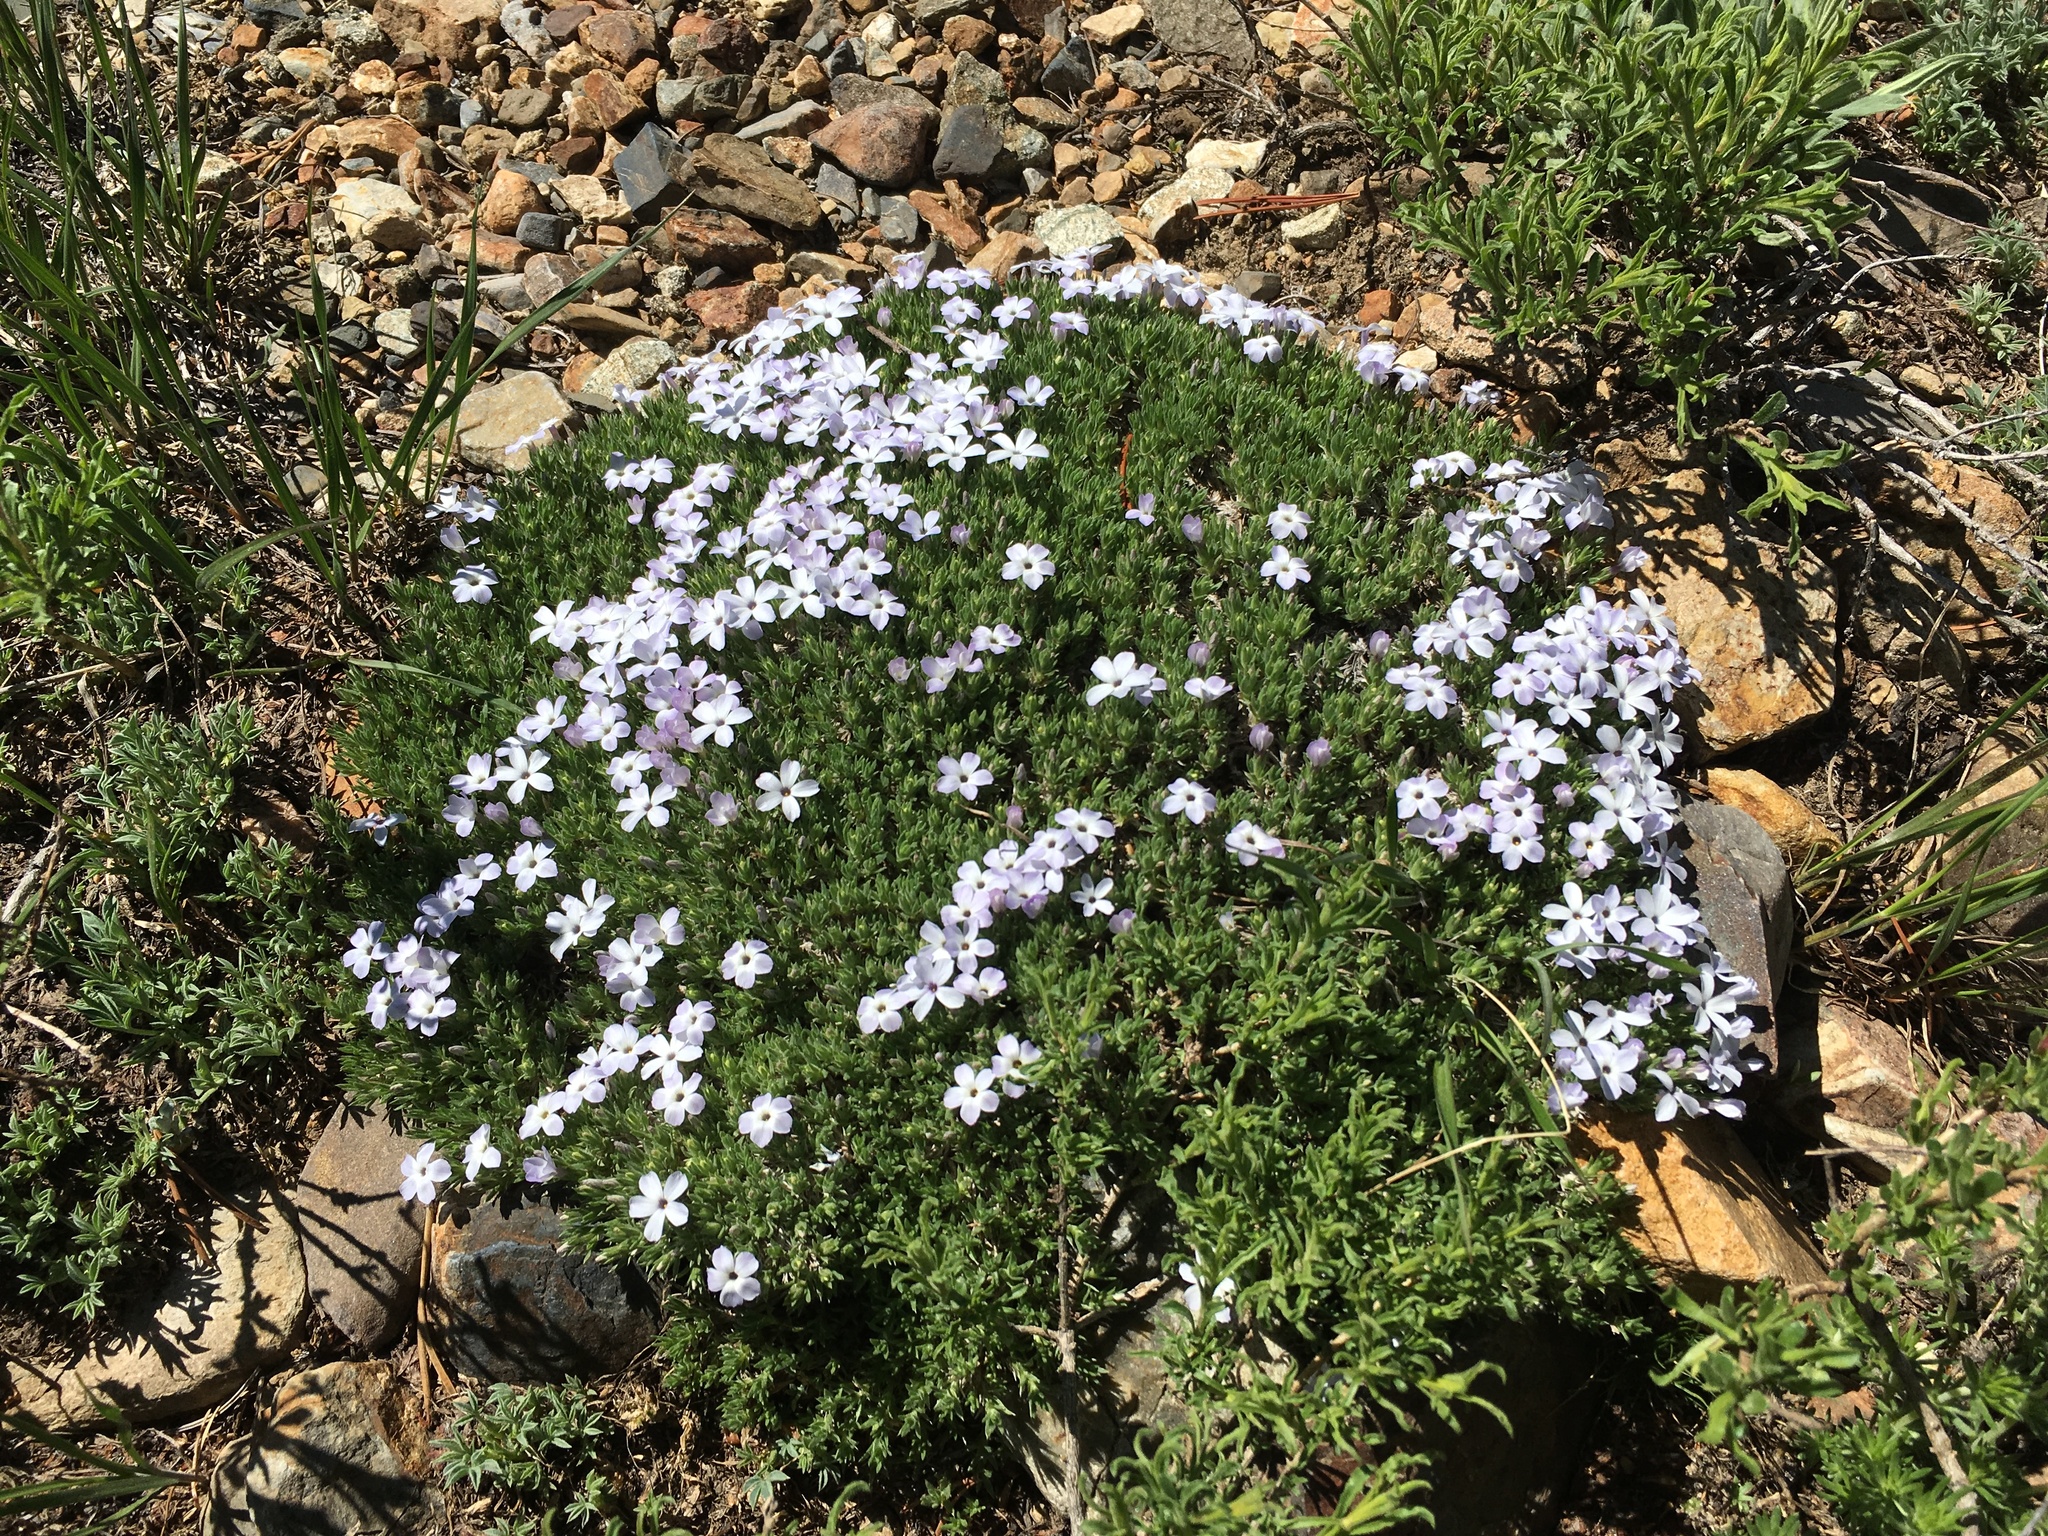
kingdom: Plantae
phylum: Tracheophyta
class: Magnoliopsida
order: Ericales
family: Polemoniaceae
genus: Phlox
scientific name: Phlox condensata
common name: Compact phlox
